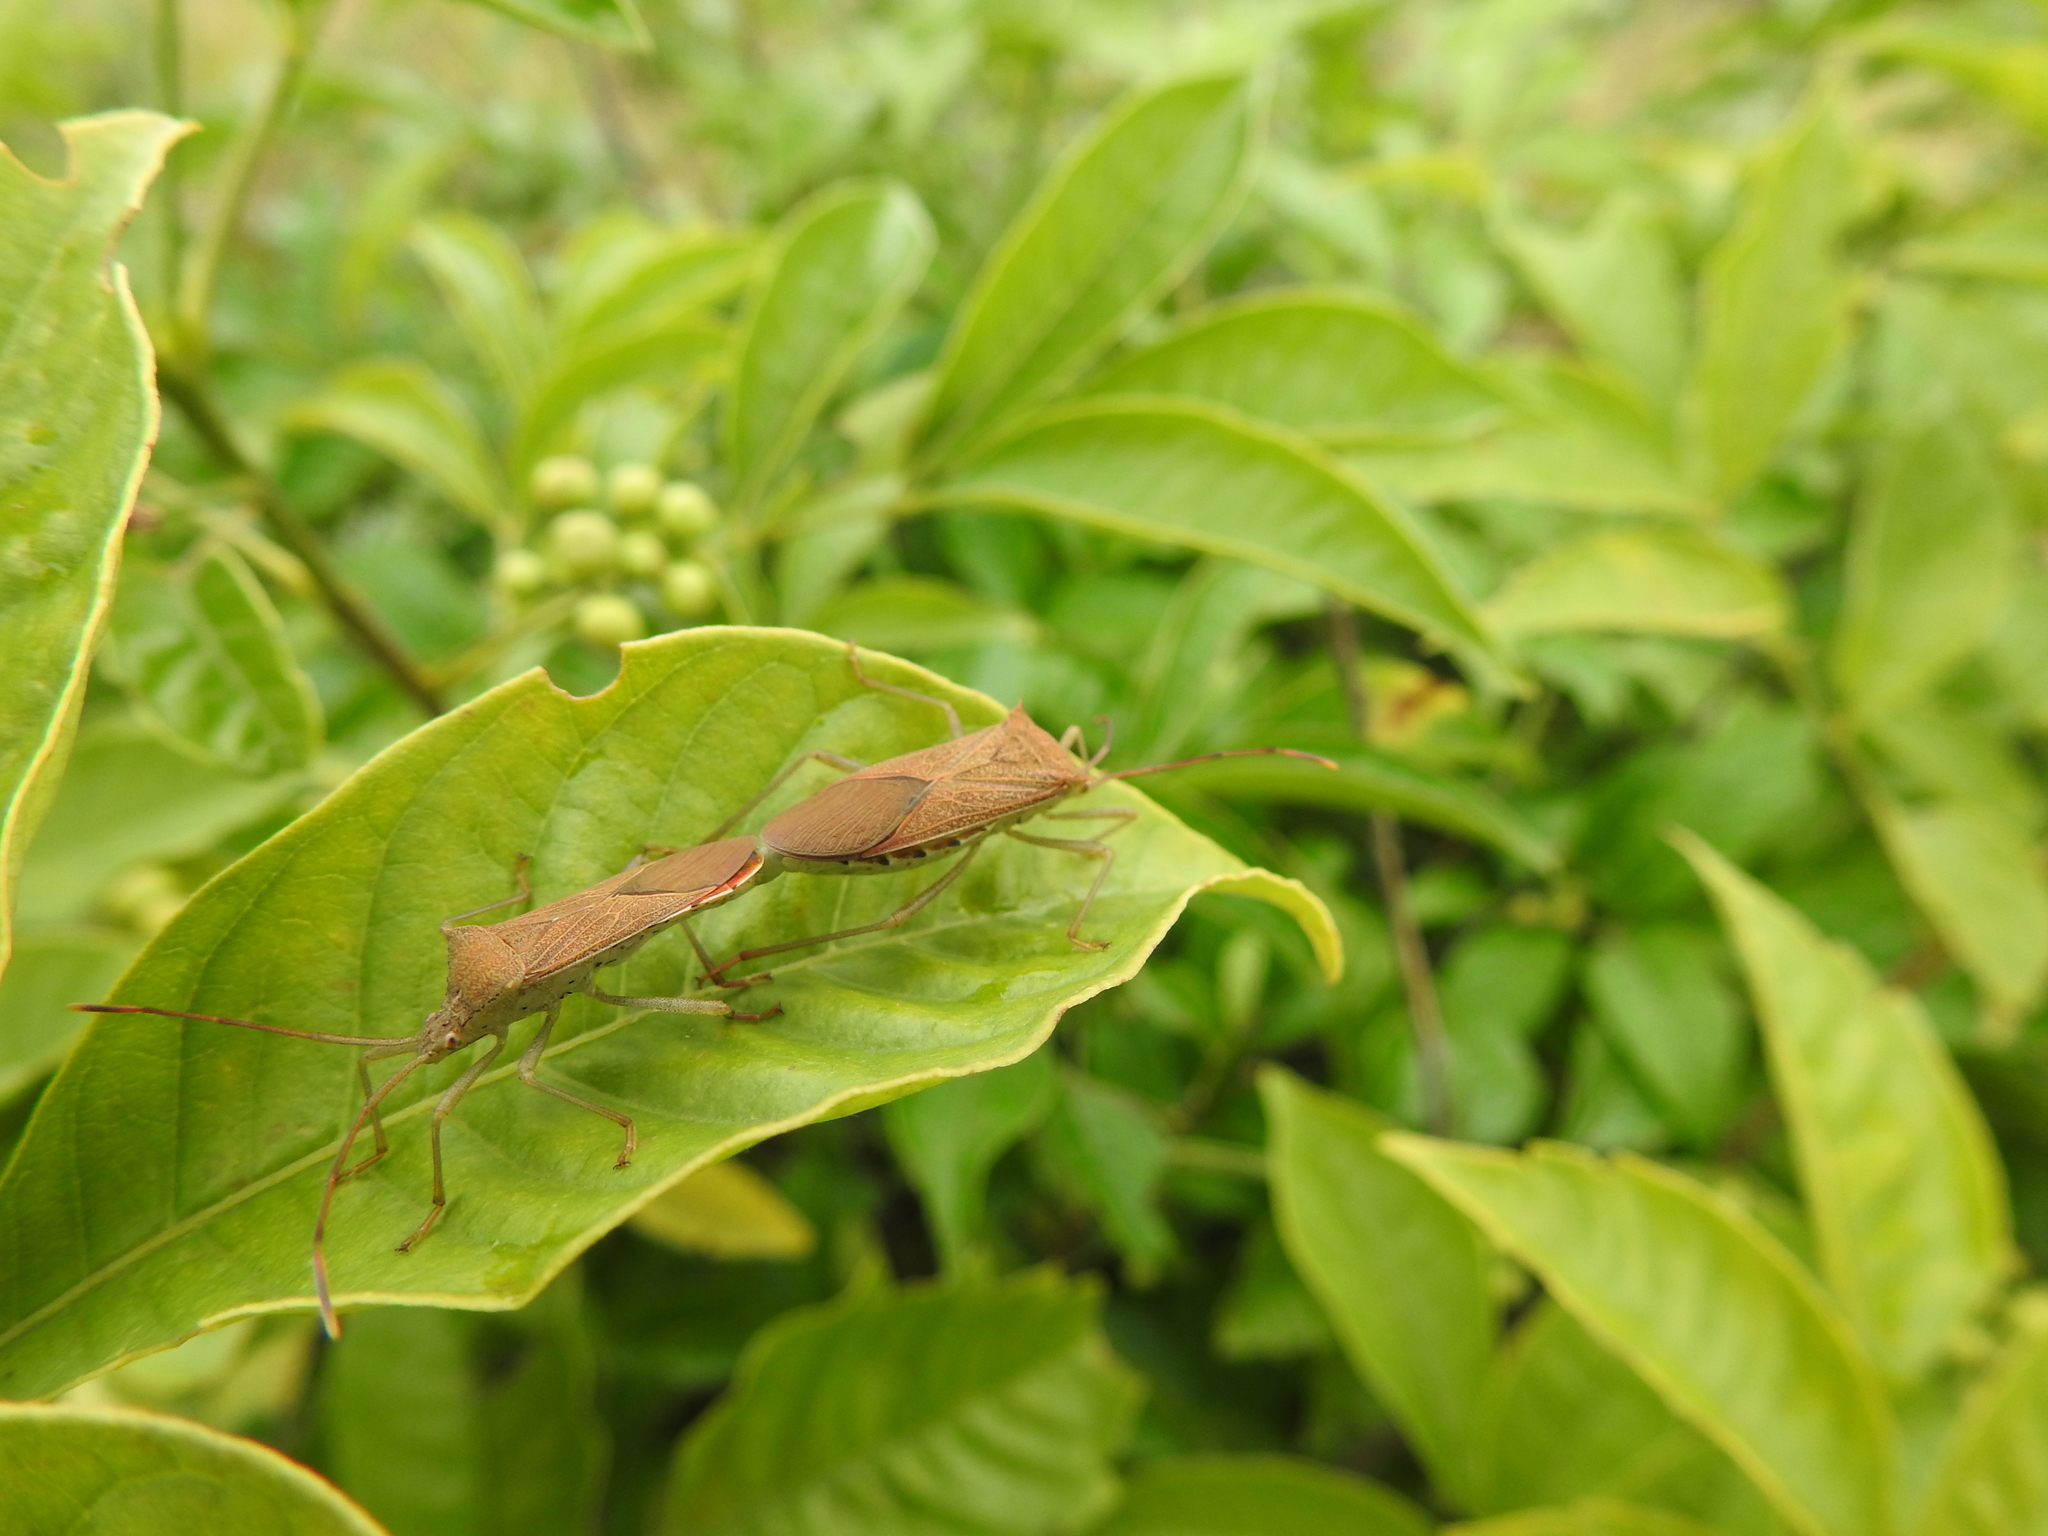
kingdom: Animalia
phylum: Arthropoda
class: Insecta
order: Hemiptera
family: Coreidae
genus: Plinachtus
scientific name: Plinachtus basalis
